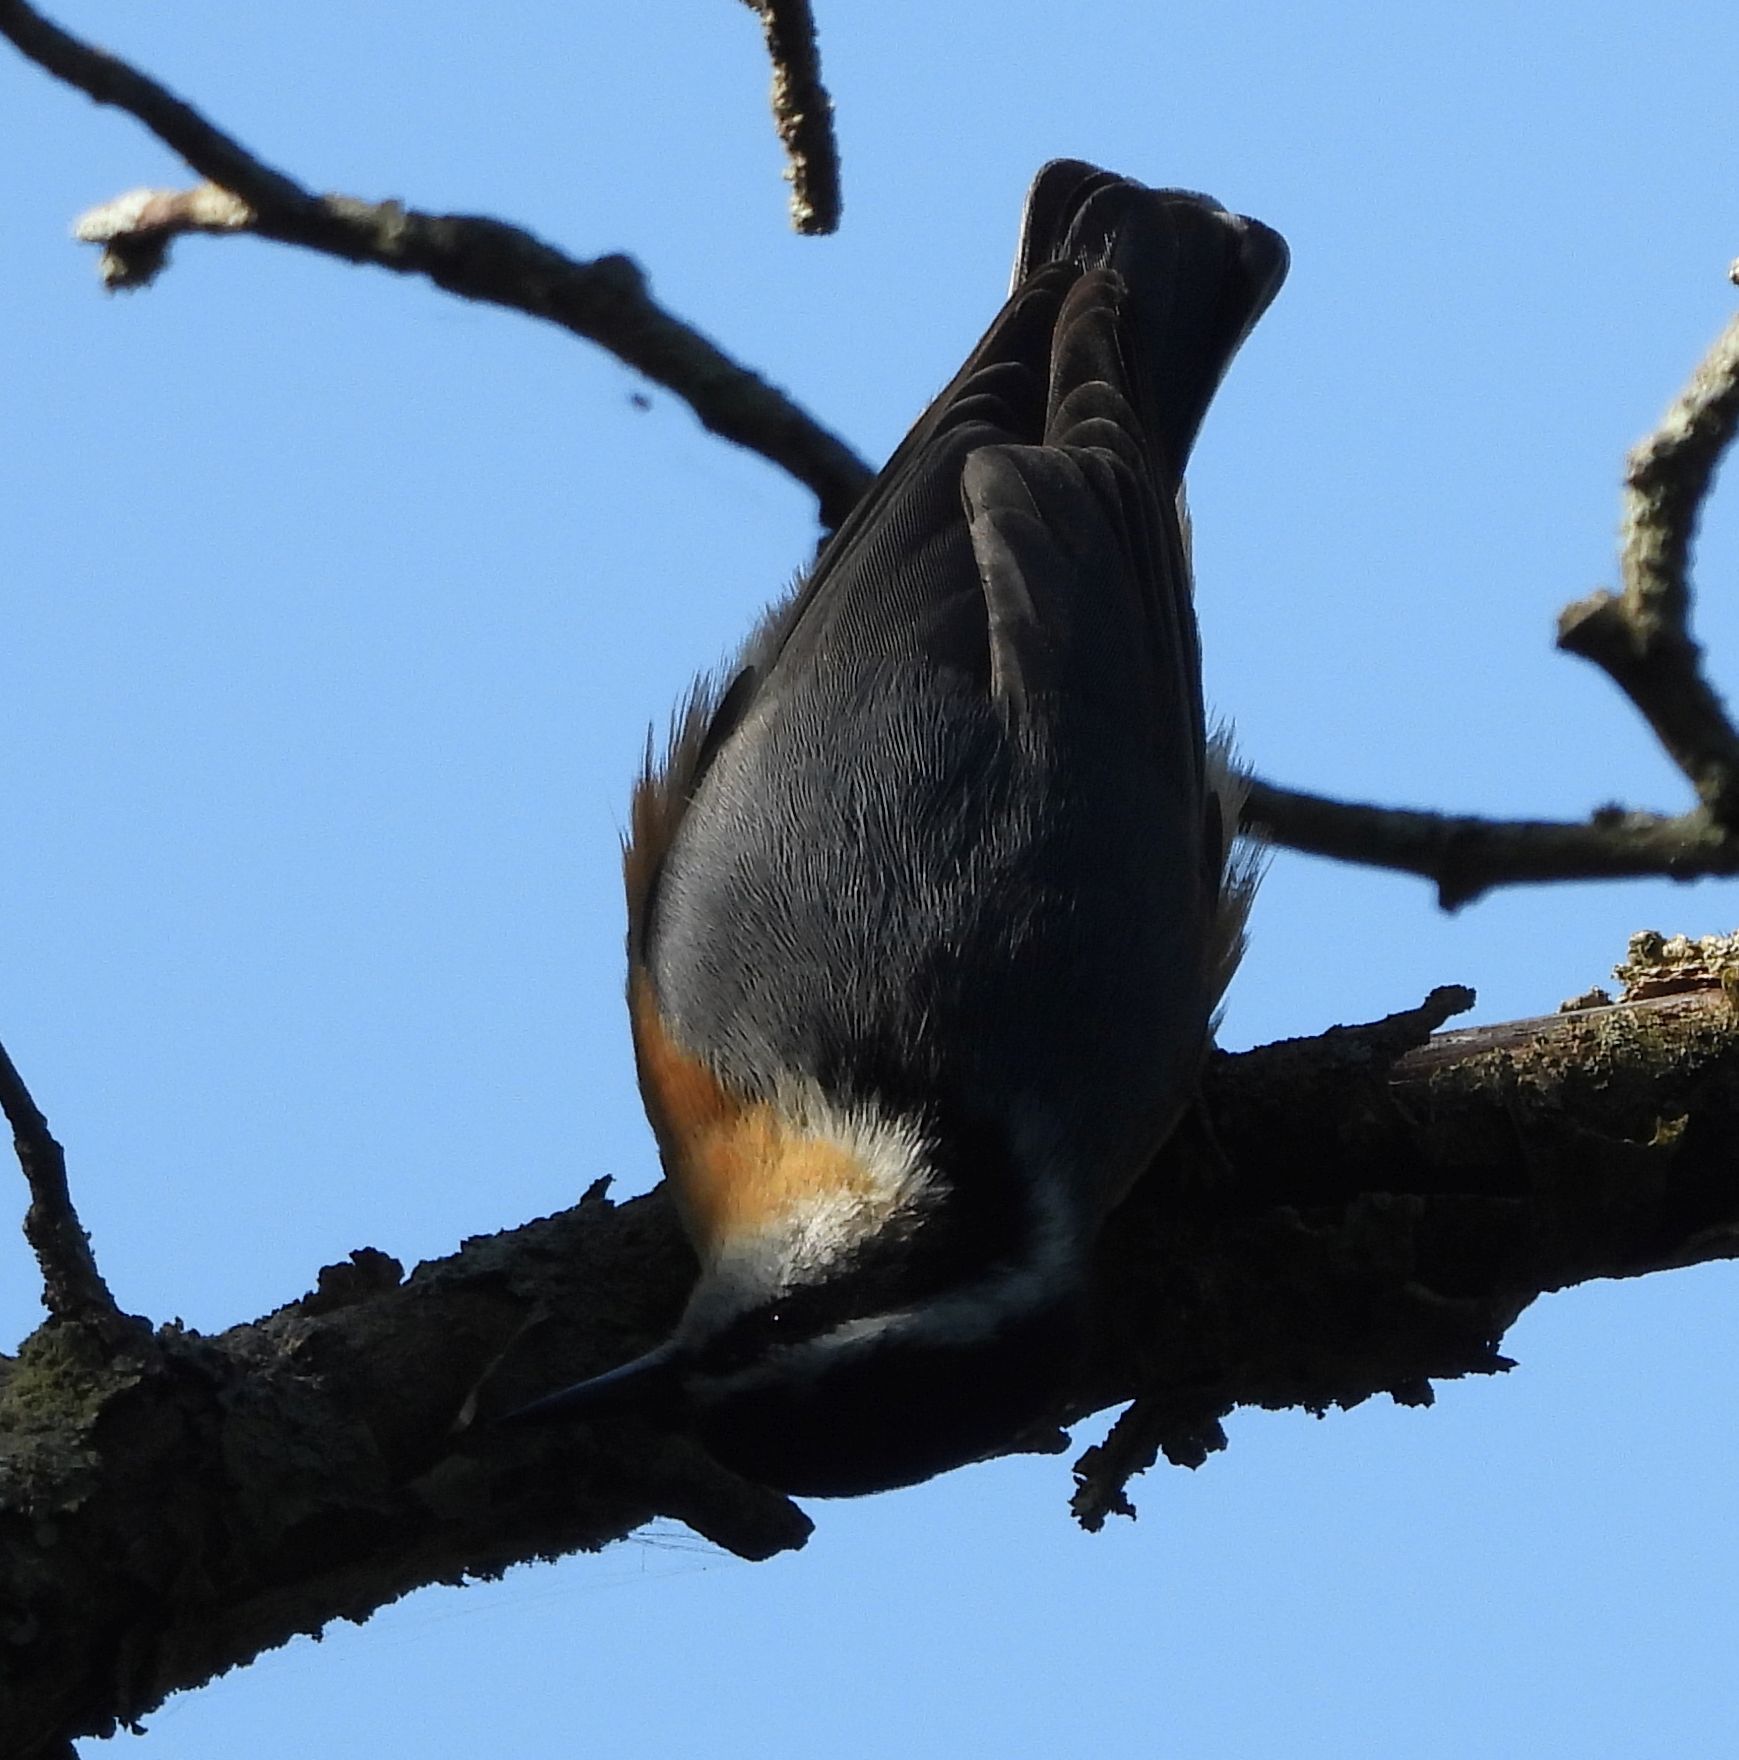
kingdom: Animalia
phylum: Chordata
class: Aves
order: Passeriformes
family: Sittidae
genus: Sitta
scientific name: Sitta canadensis
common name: Red-breasted nuthatch
